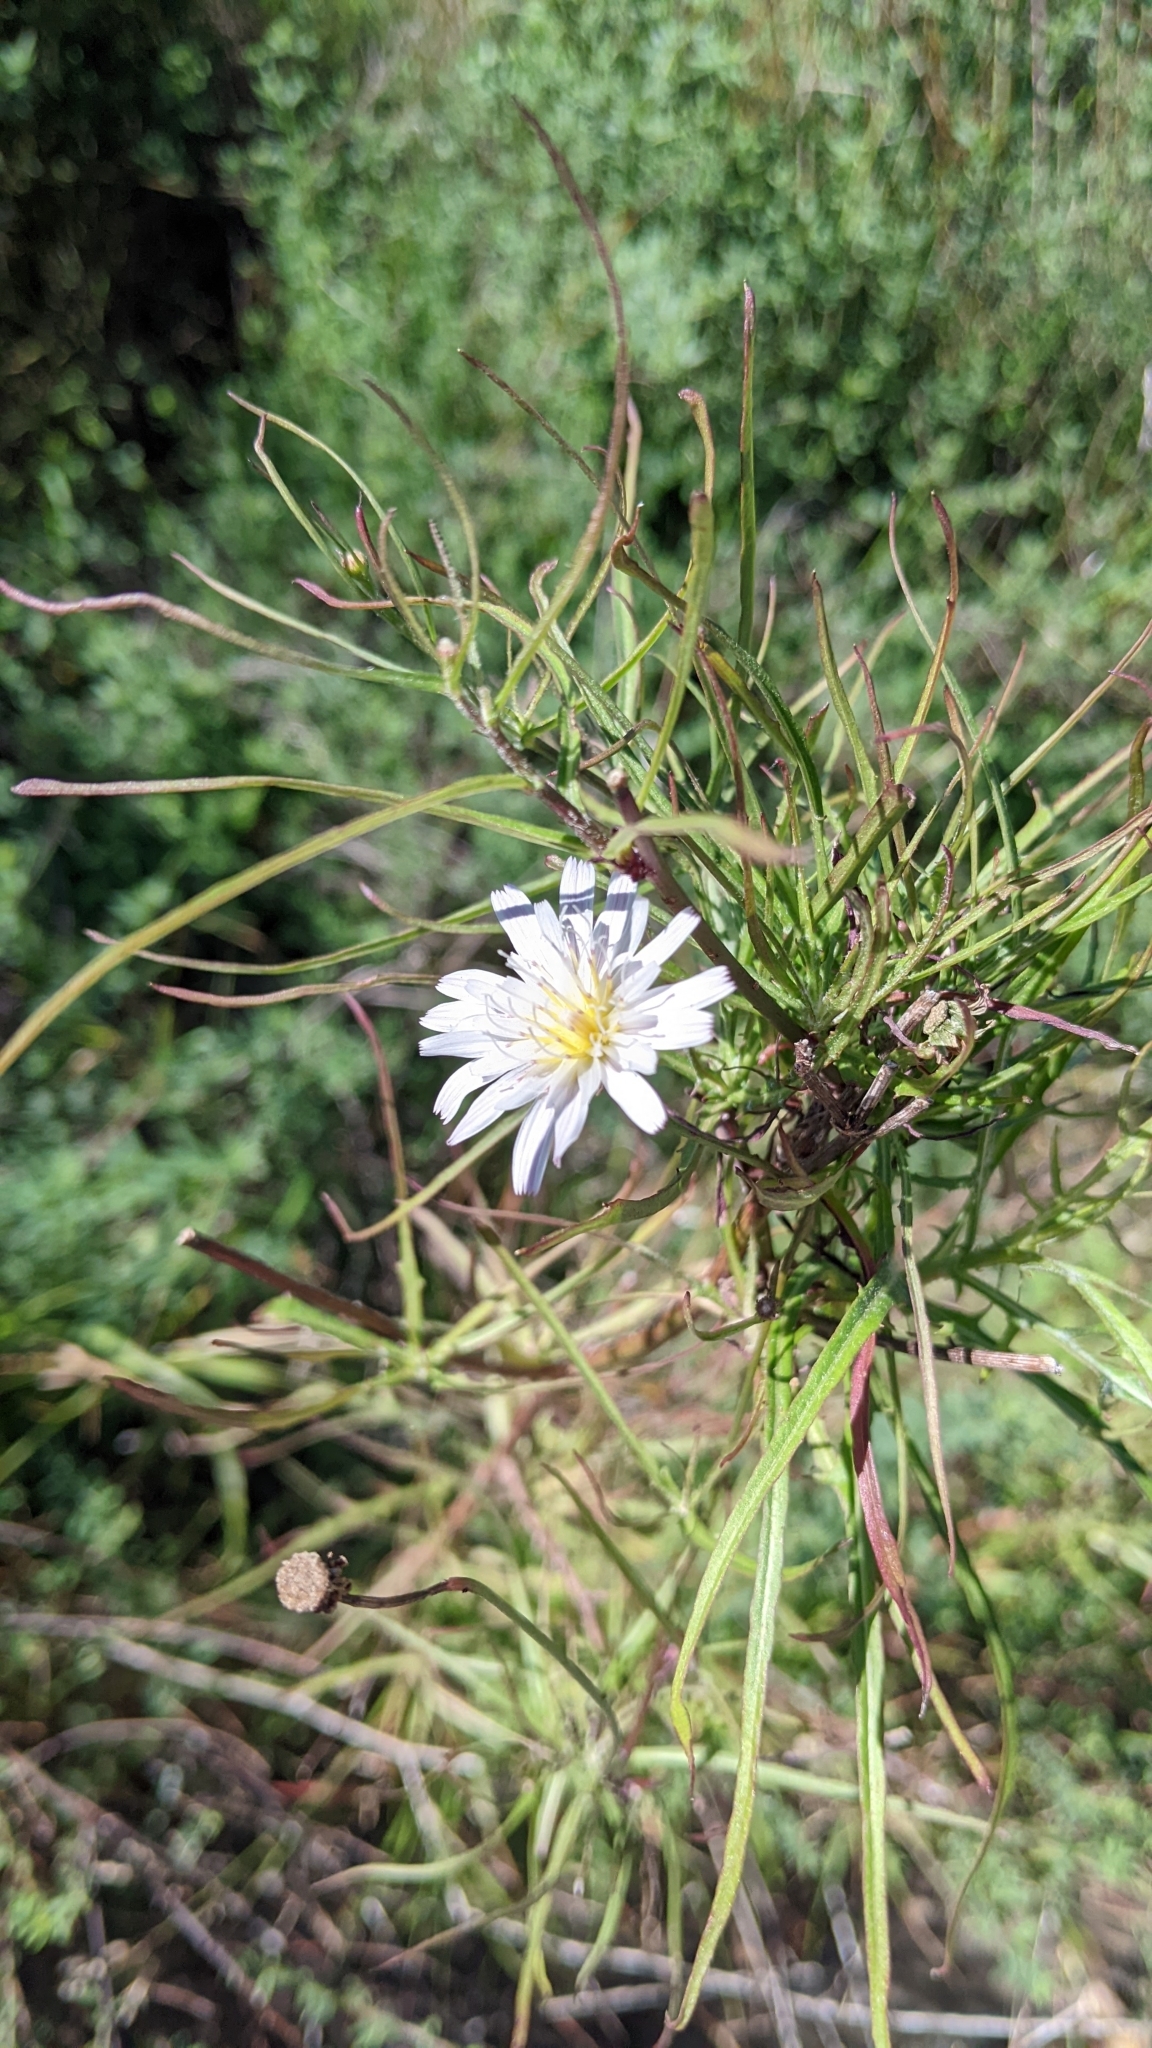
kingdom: Plantae
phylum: Tracheophyta
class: Magnoliopsida
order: Asterales
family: Asteraceae
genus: Malacothrix
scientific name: Malacothrix saxatilis
